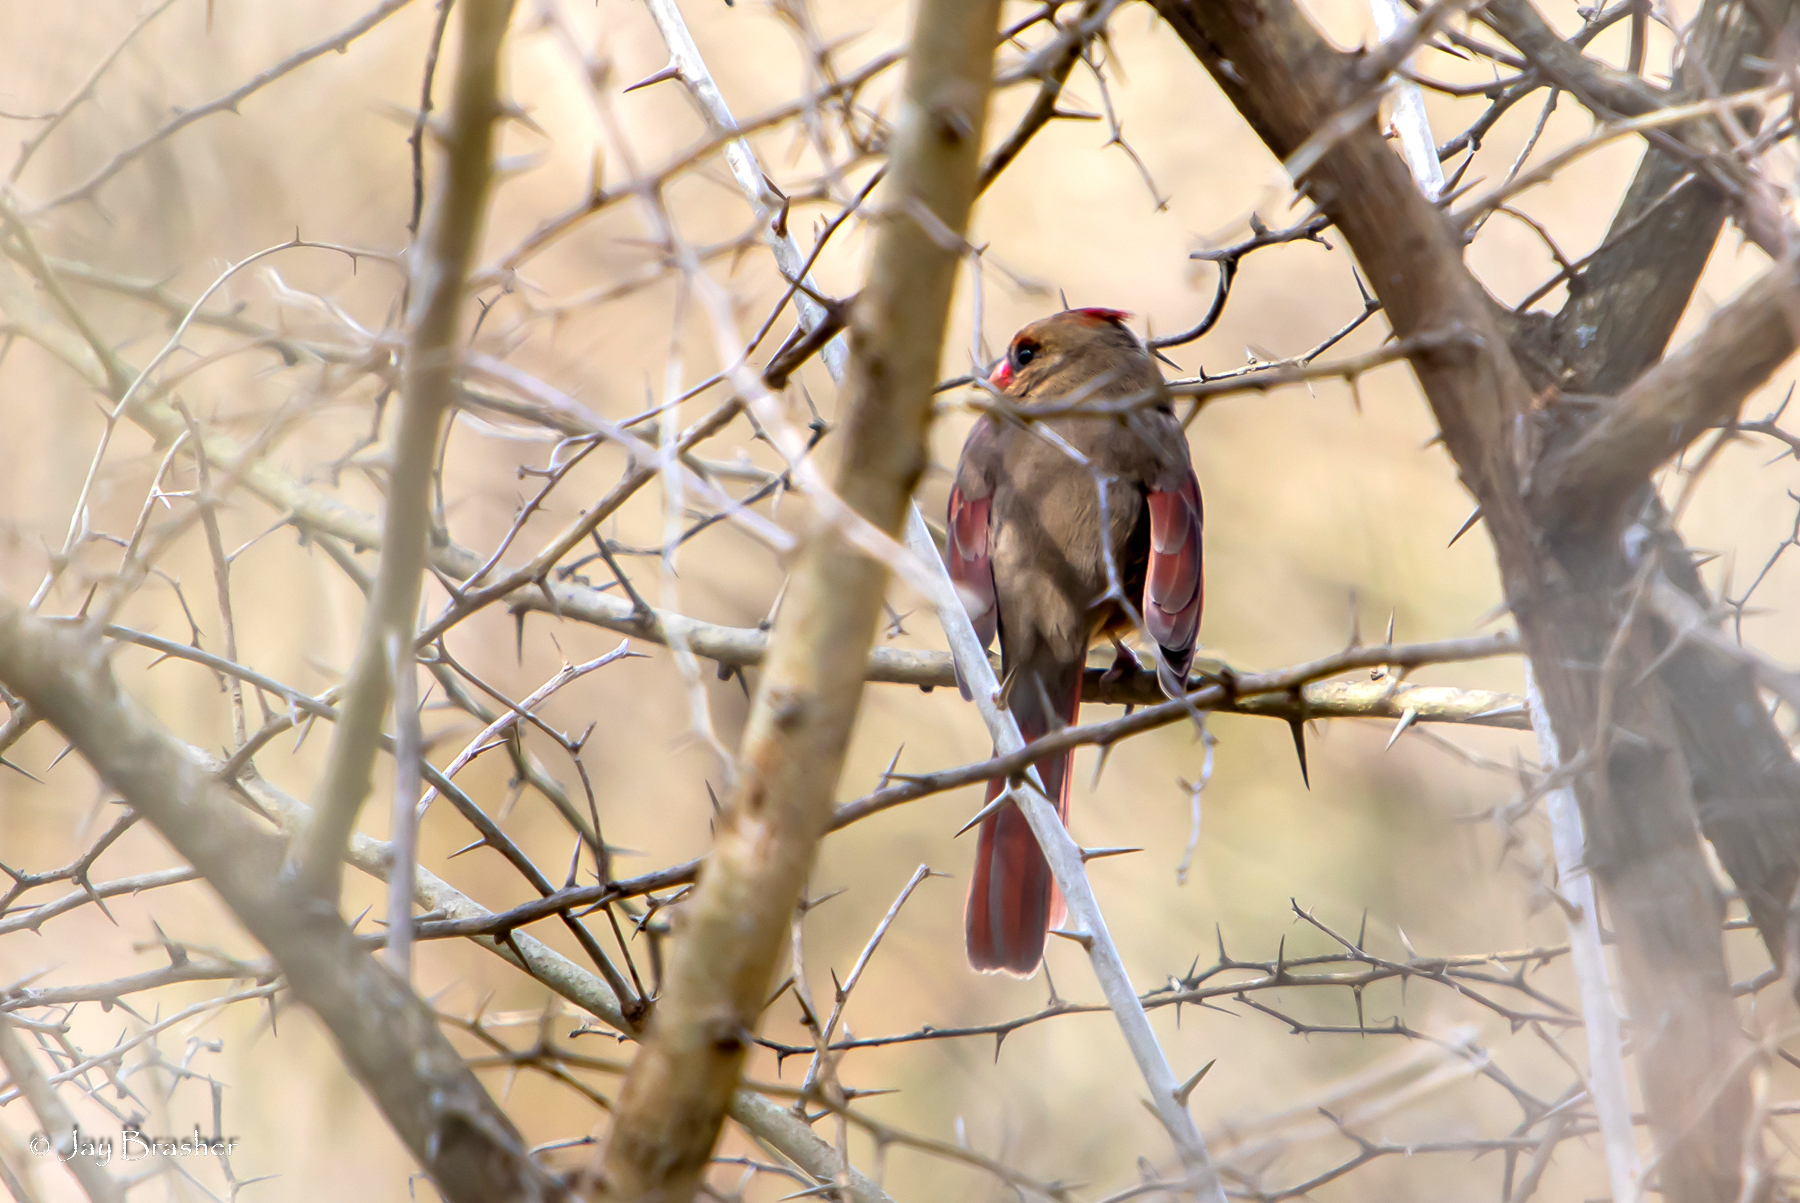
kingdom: Animalia
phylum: Chordata
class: Aves
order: Passeriformes
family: Cardinalidae
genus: Cardinalis
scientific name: Cardinalis cardinalis
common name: Northern cardinal
